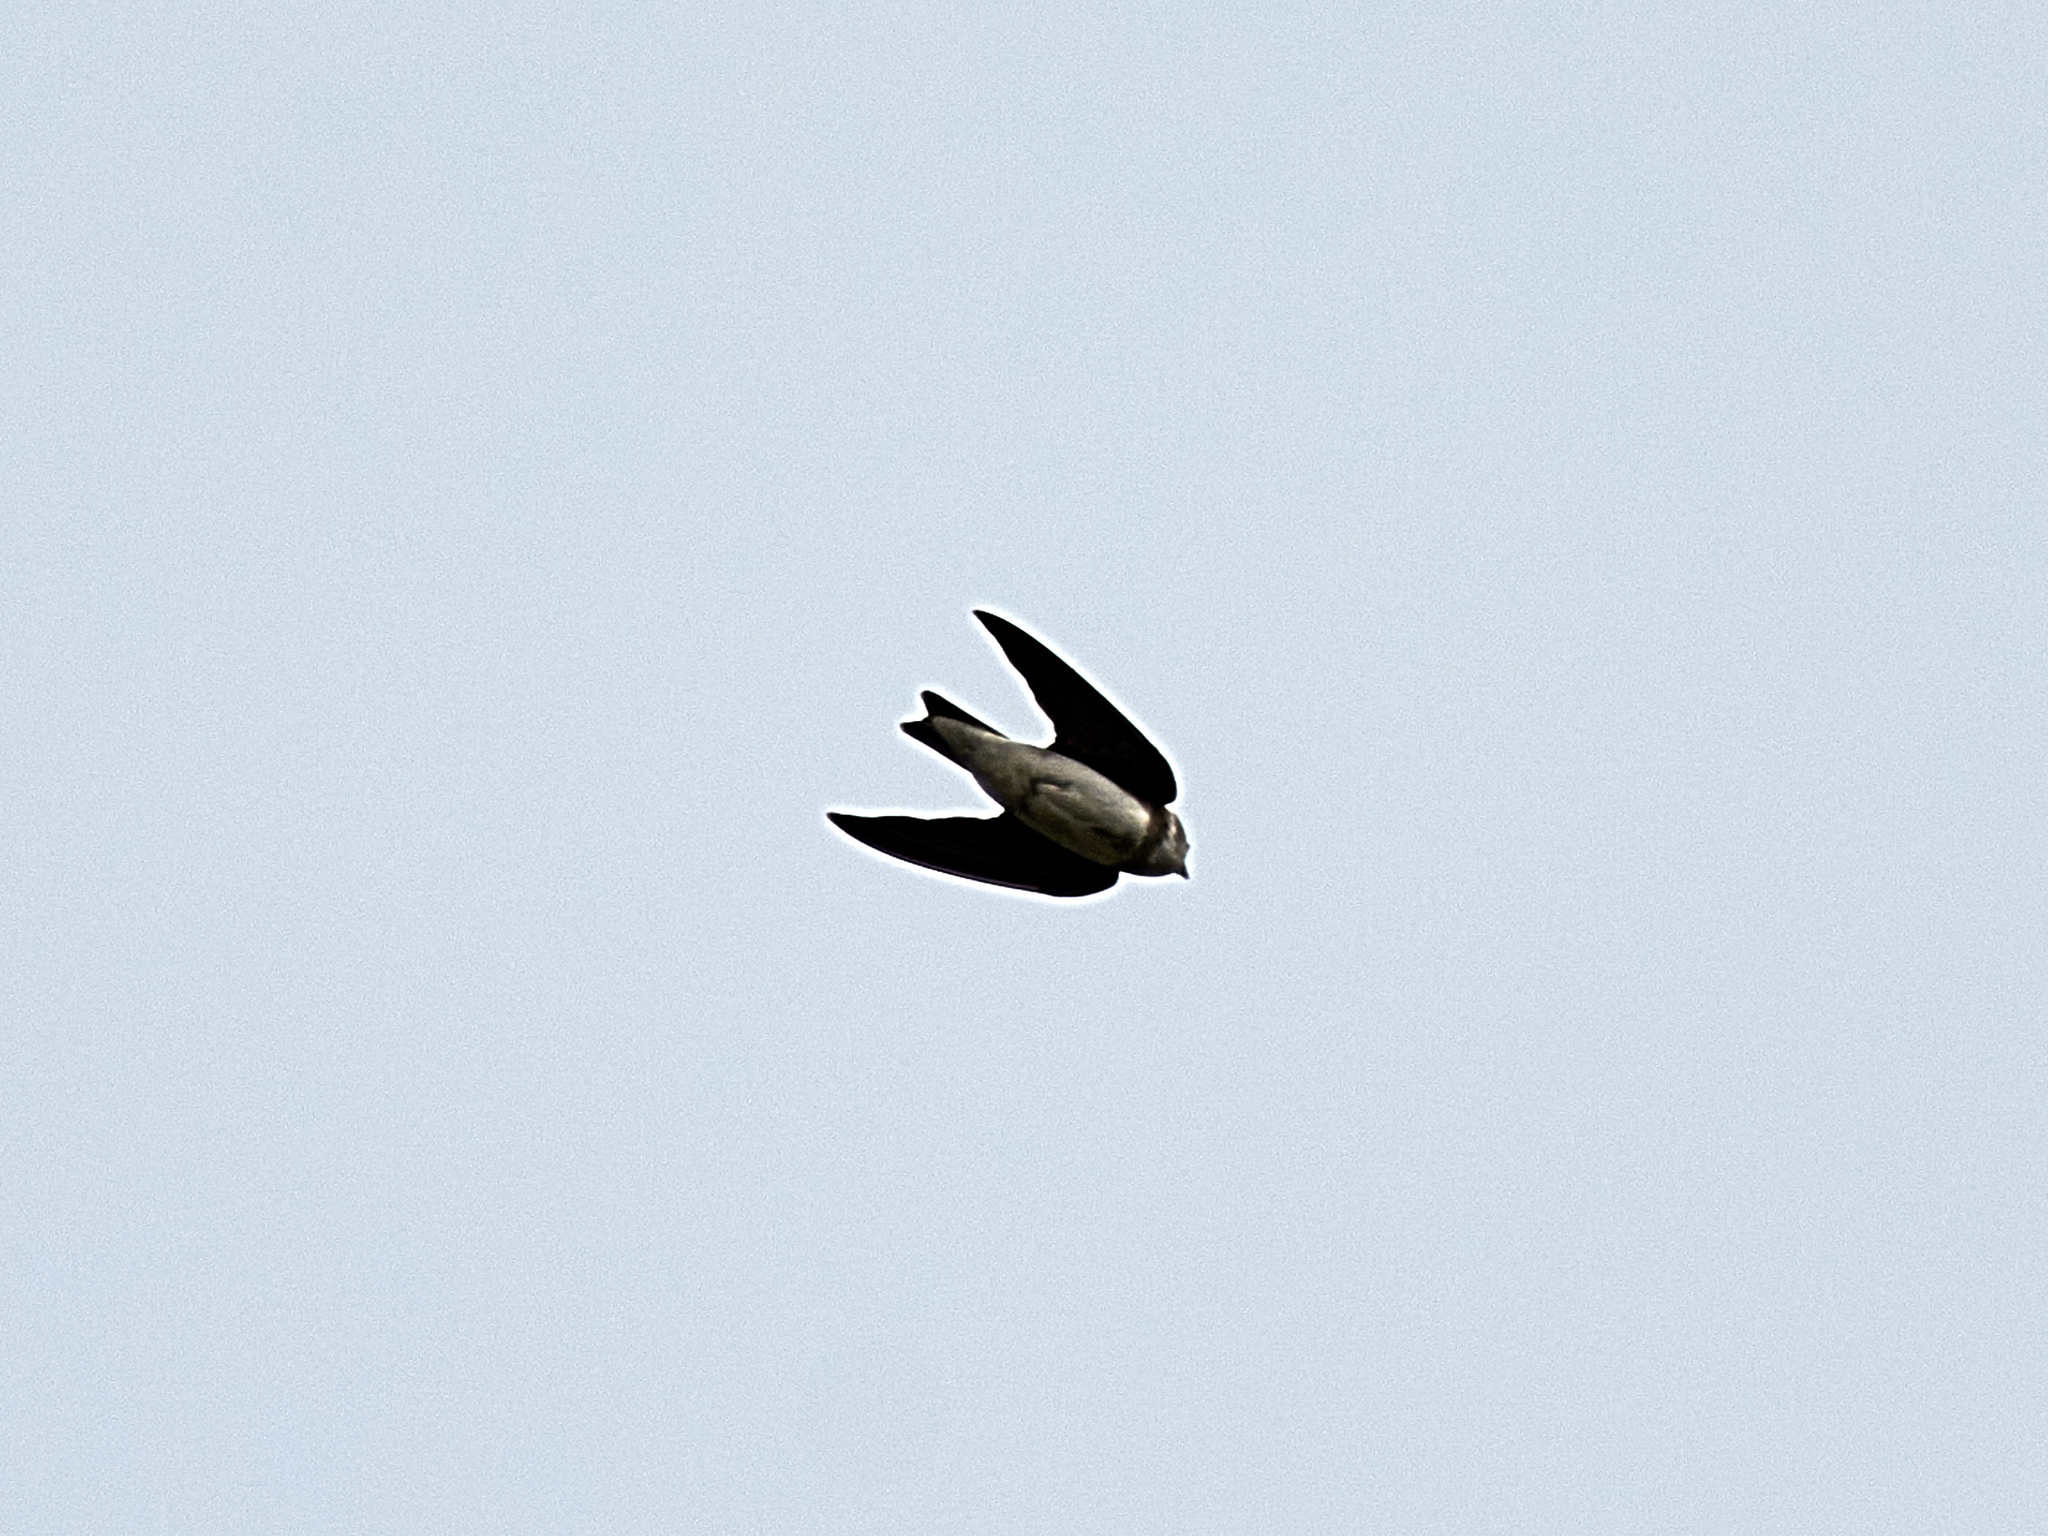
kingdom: Animalia
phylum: Chordata
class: Aves
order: Passeriformes
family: Hirundinidae
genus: Riparia
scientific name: Riparia riparia
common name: Sand martin
